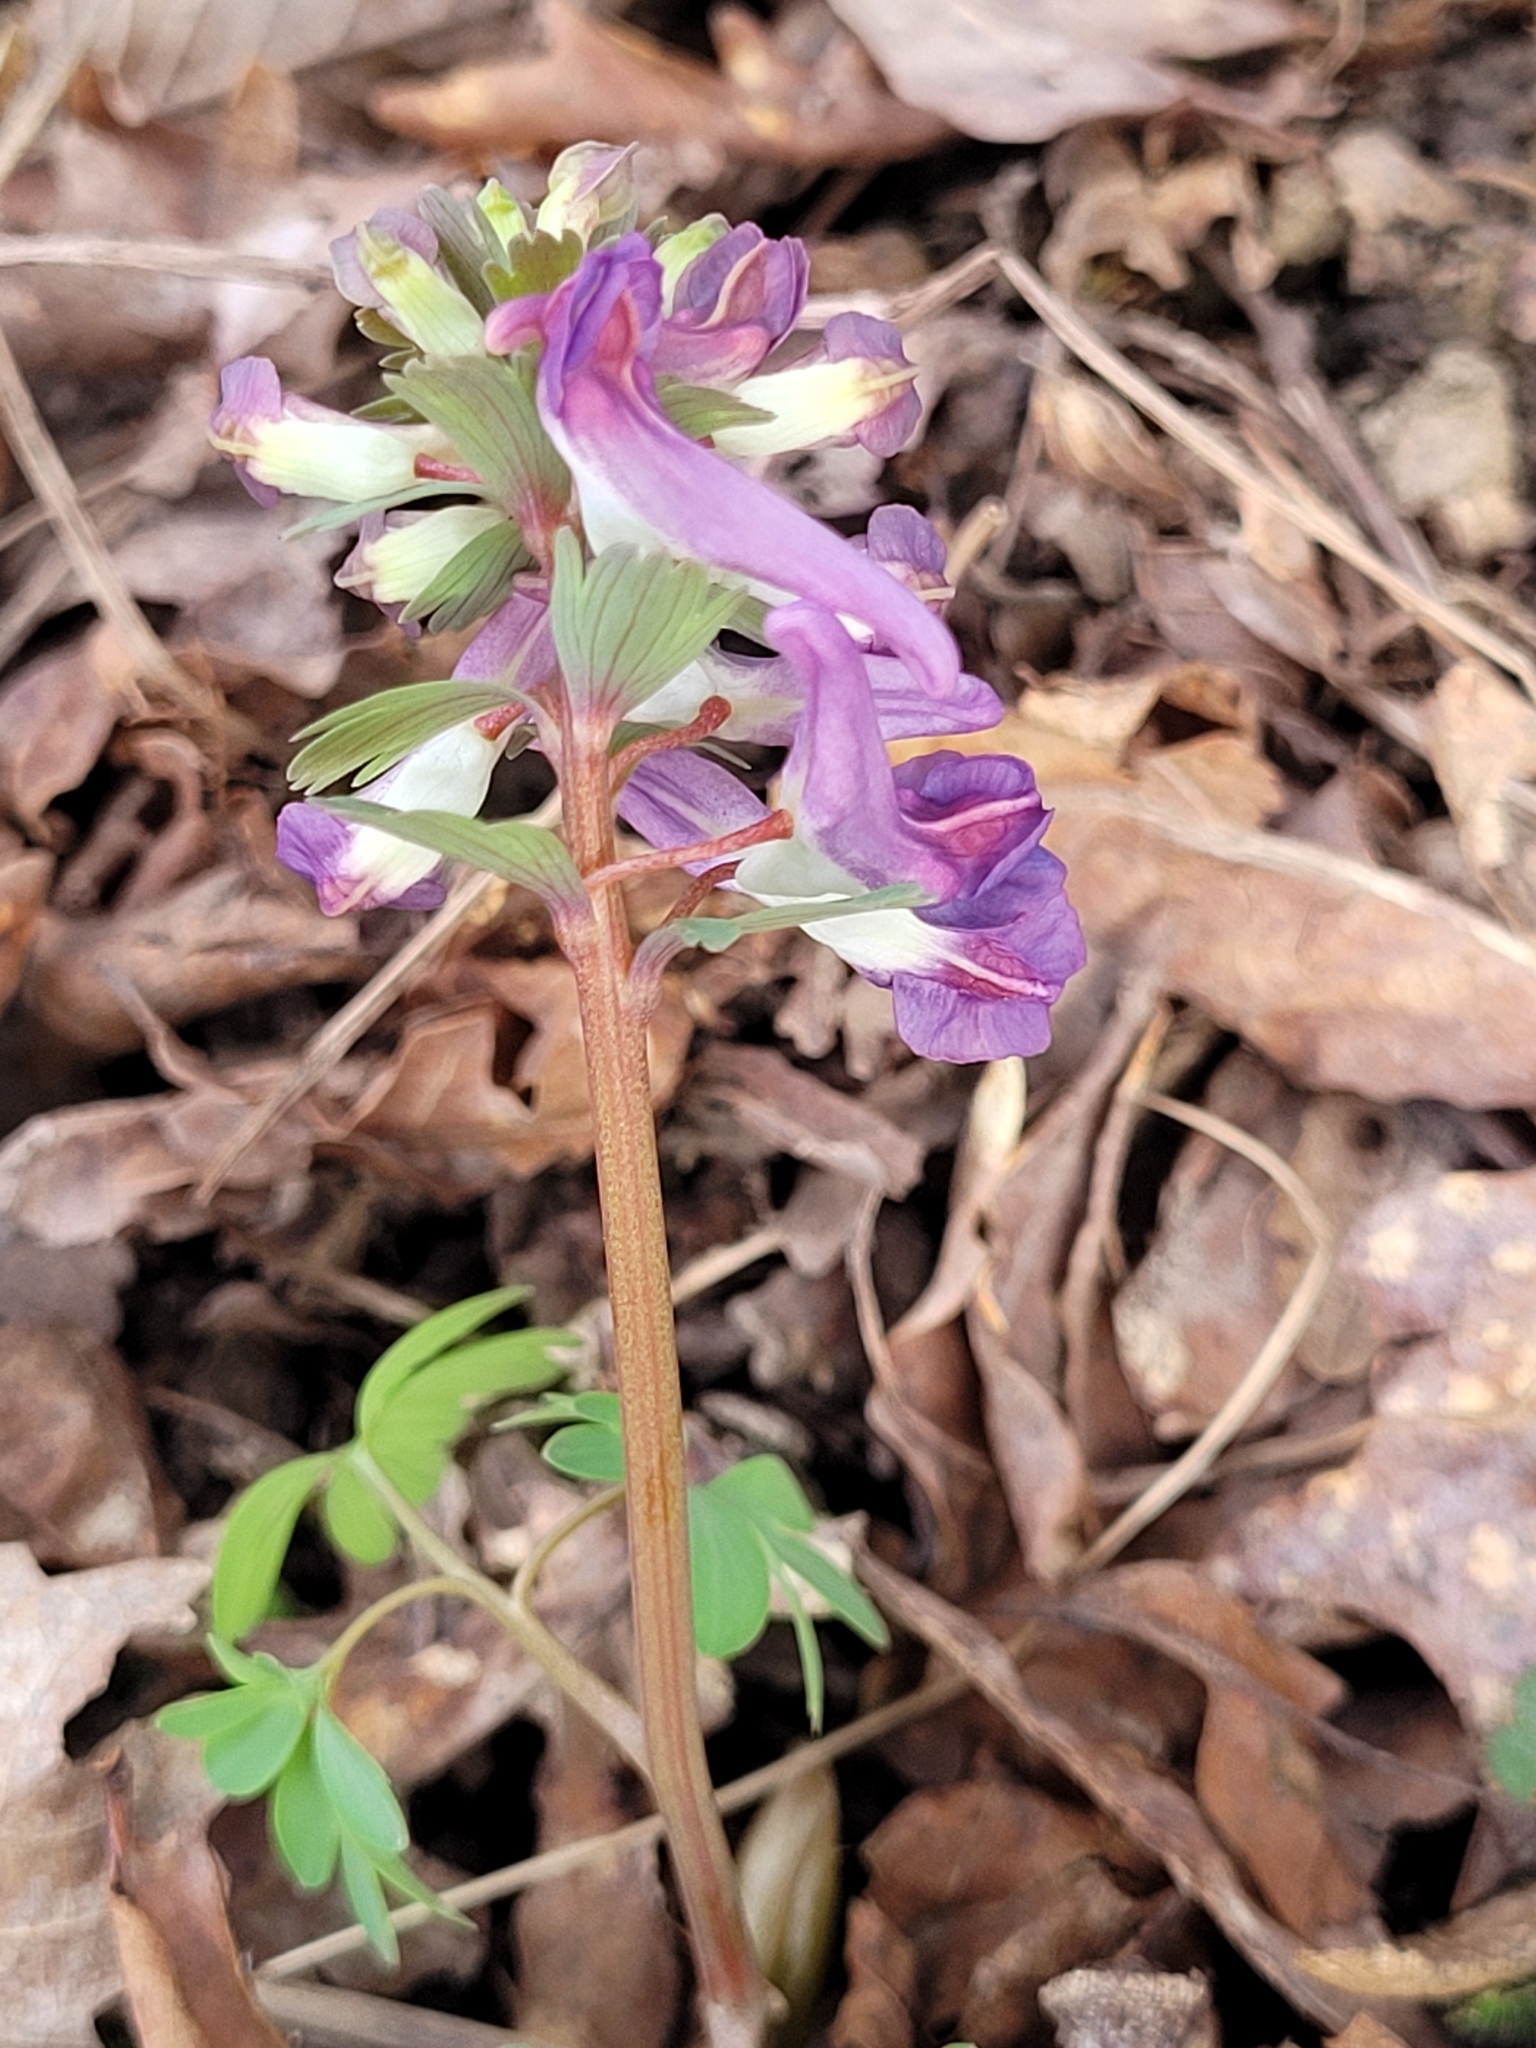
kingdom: Plantae
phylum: Tracheophyta
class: Magnoliopsida
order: Ranunculales
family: Papaveraceae
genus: Corydalis
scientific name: Corydalis solida
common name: Bird-in-a-bush
